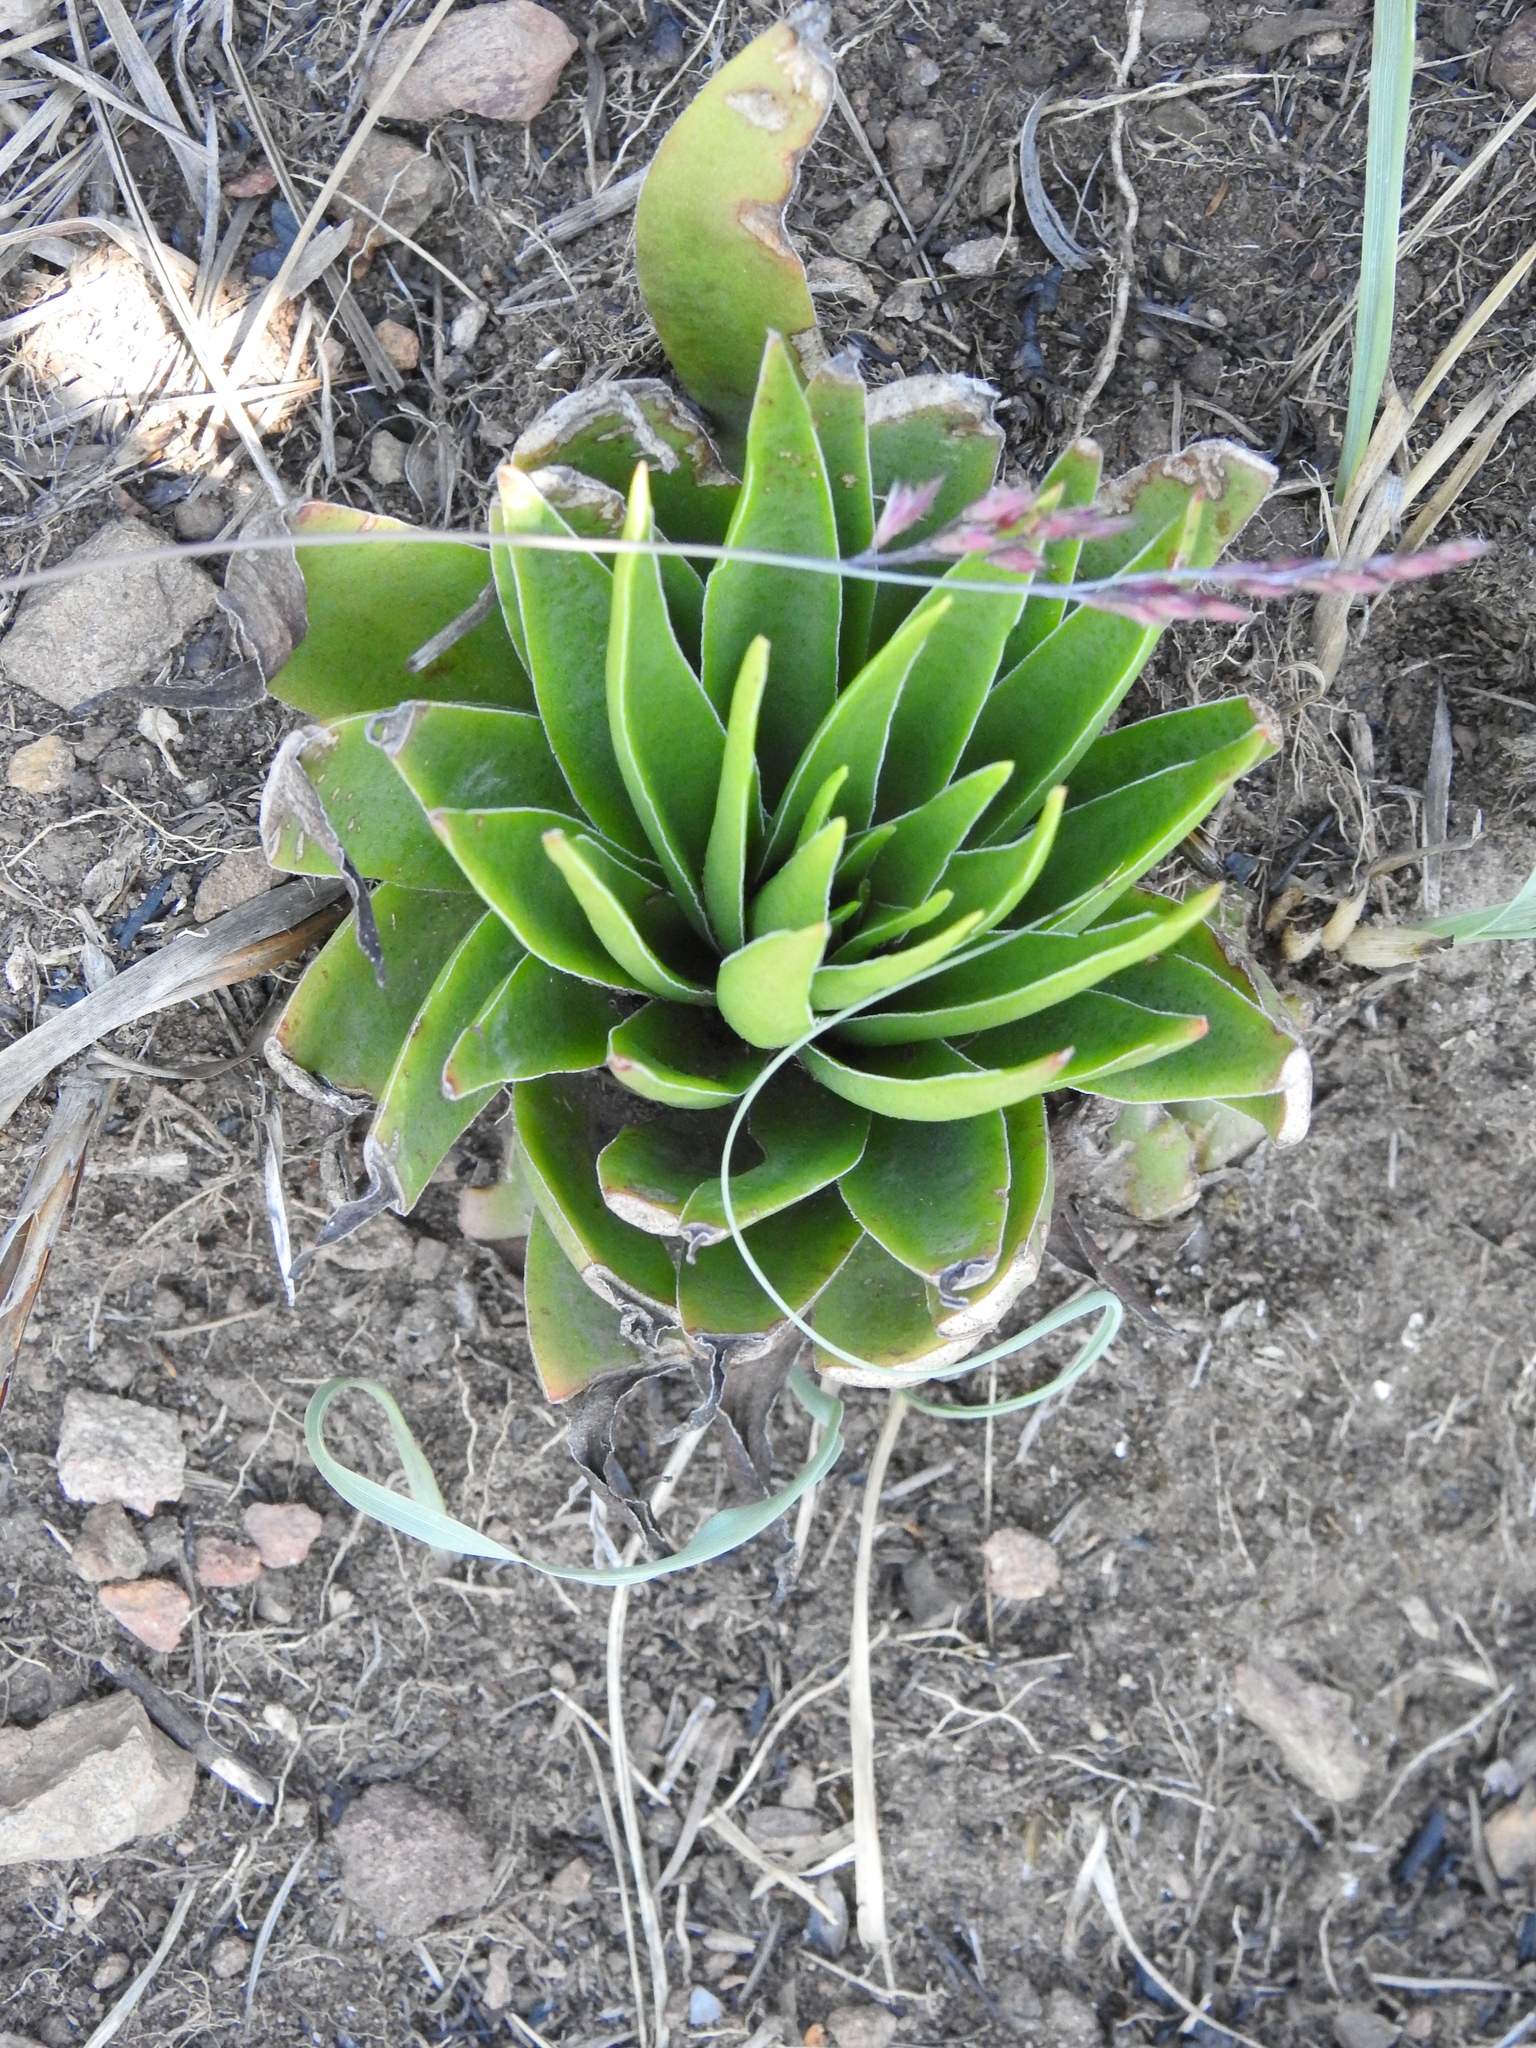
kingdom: Plantae
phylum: Tracheophyta
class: Magnoliopsida
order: Saxifragales
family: Crassulaceae
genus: Crassula
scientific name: Crassula alba
